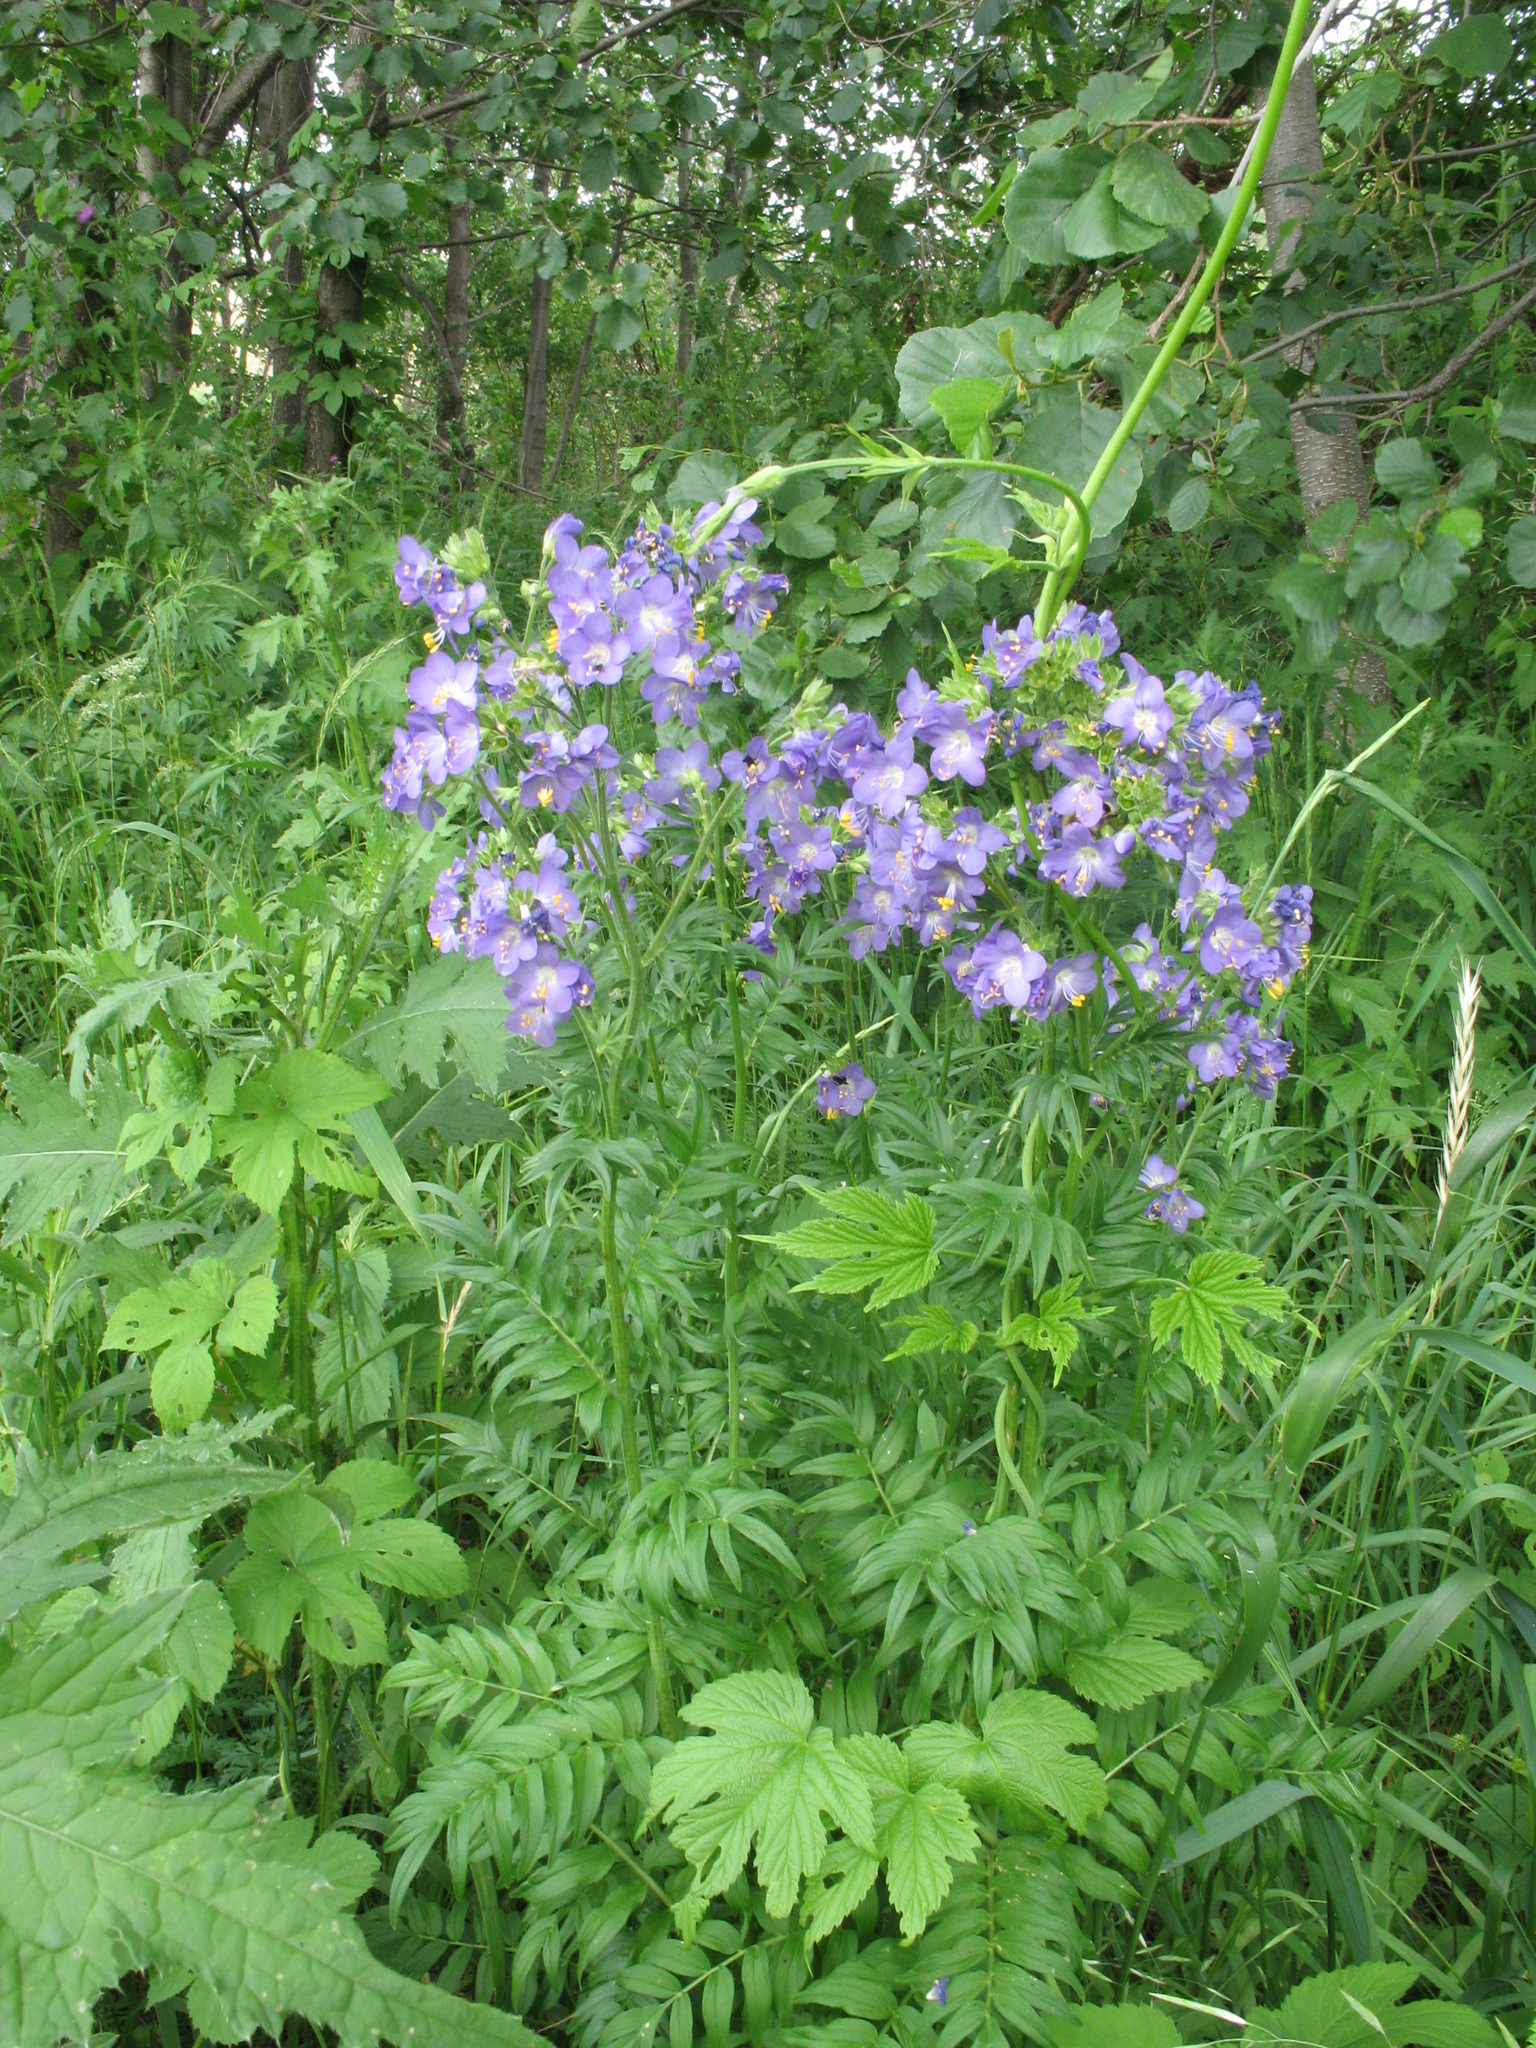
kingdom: Plantae
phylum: Tracheophyta
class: Magnoliopsida
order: Ericales
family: Polemoniaceae
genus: Polemonium
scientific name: Polemonium caeruleum
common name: Jacob's-ladder
